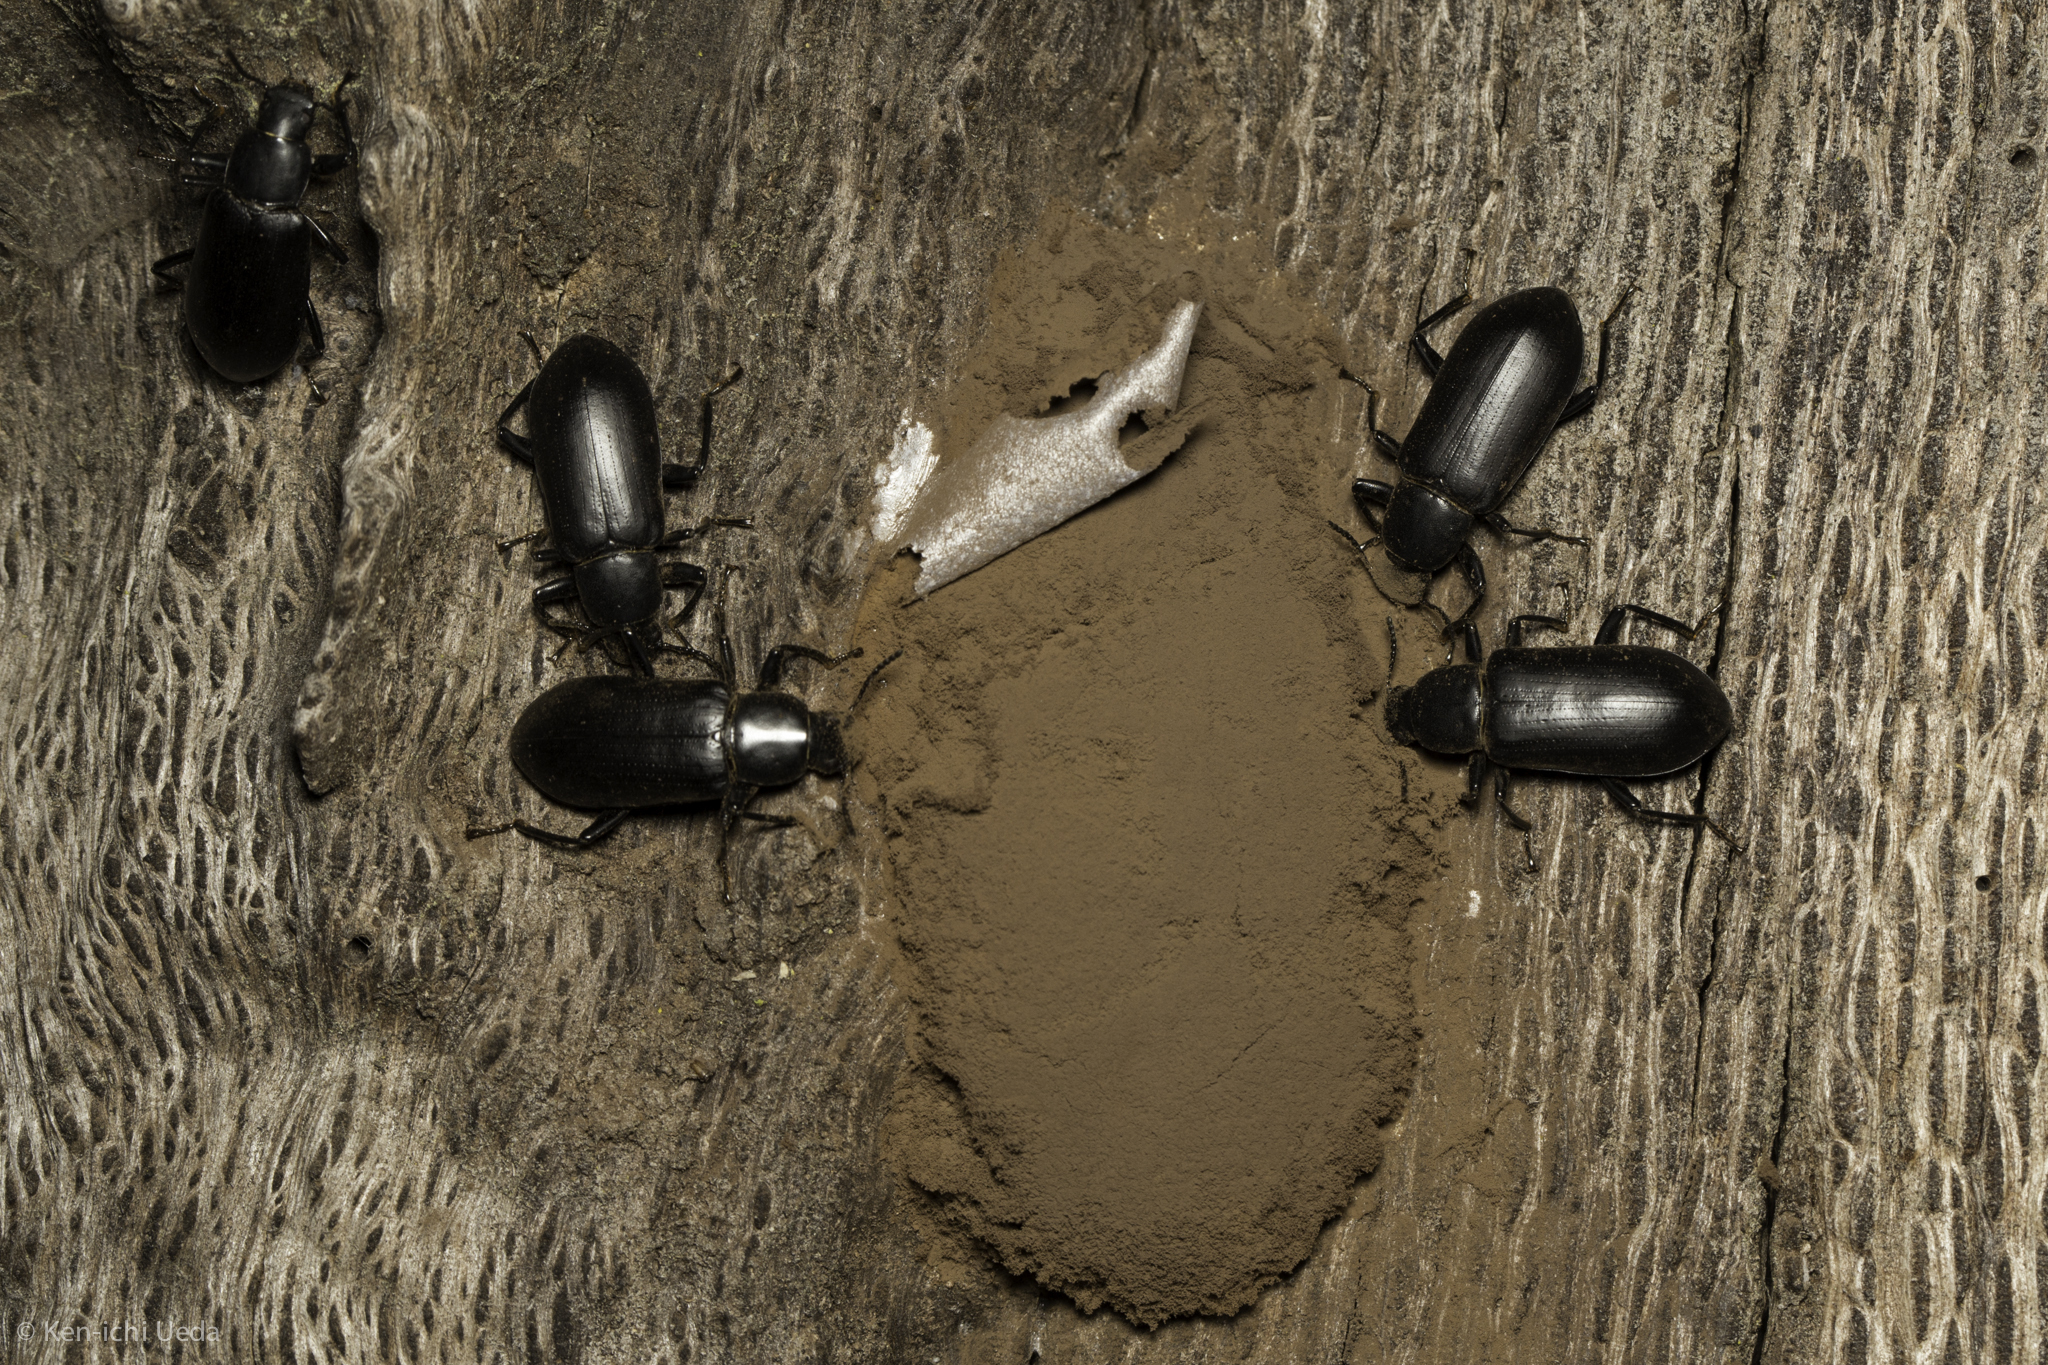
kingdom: Animalia
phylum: Arthropoda
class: Insecta
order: Coleoptera
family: Tenebrionidae
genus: Alobates
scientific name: Alobates pensylvanicus
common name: False mealworm beetle
